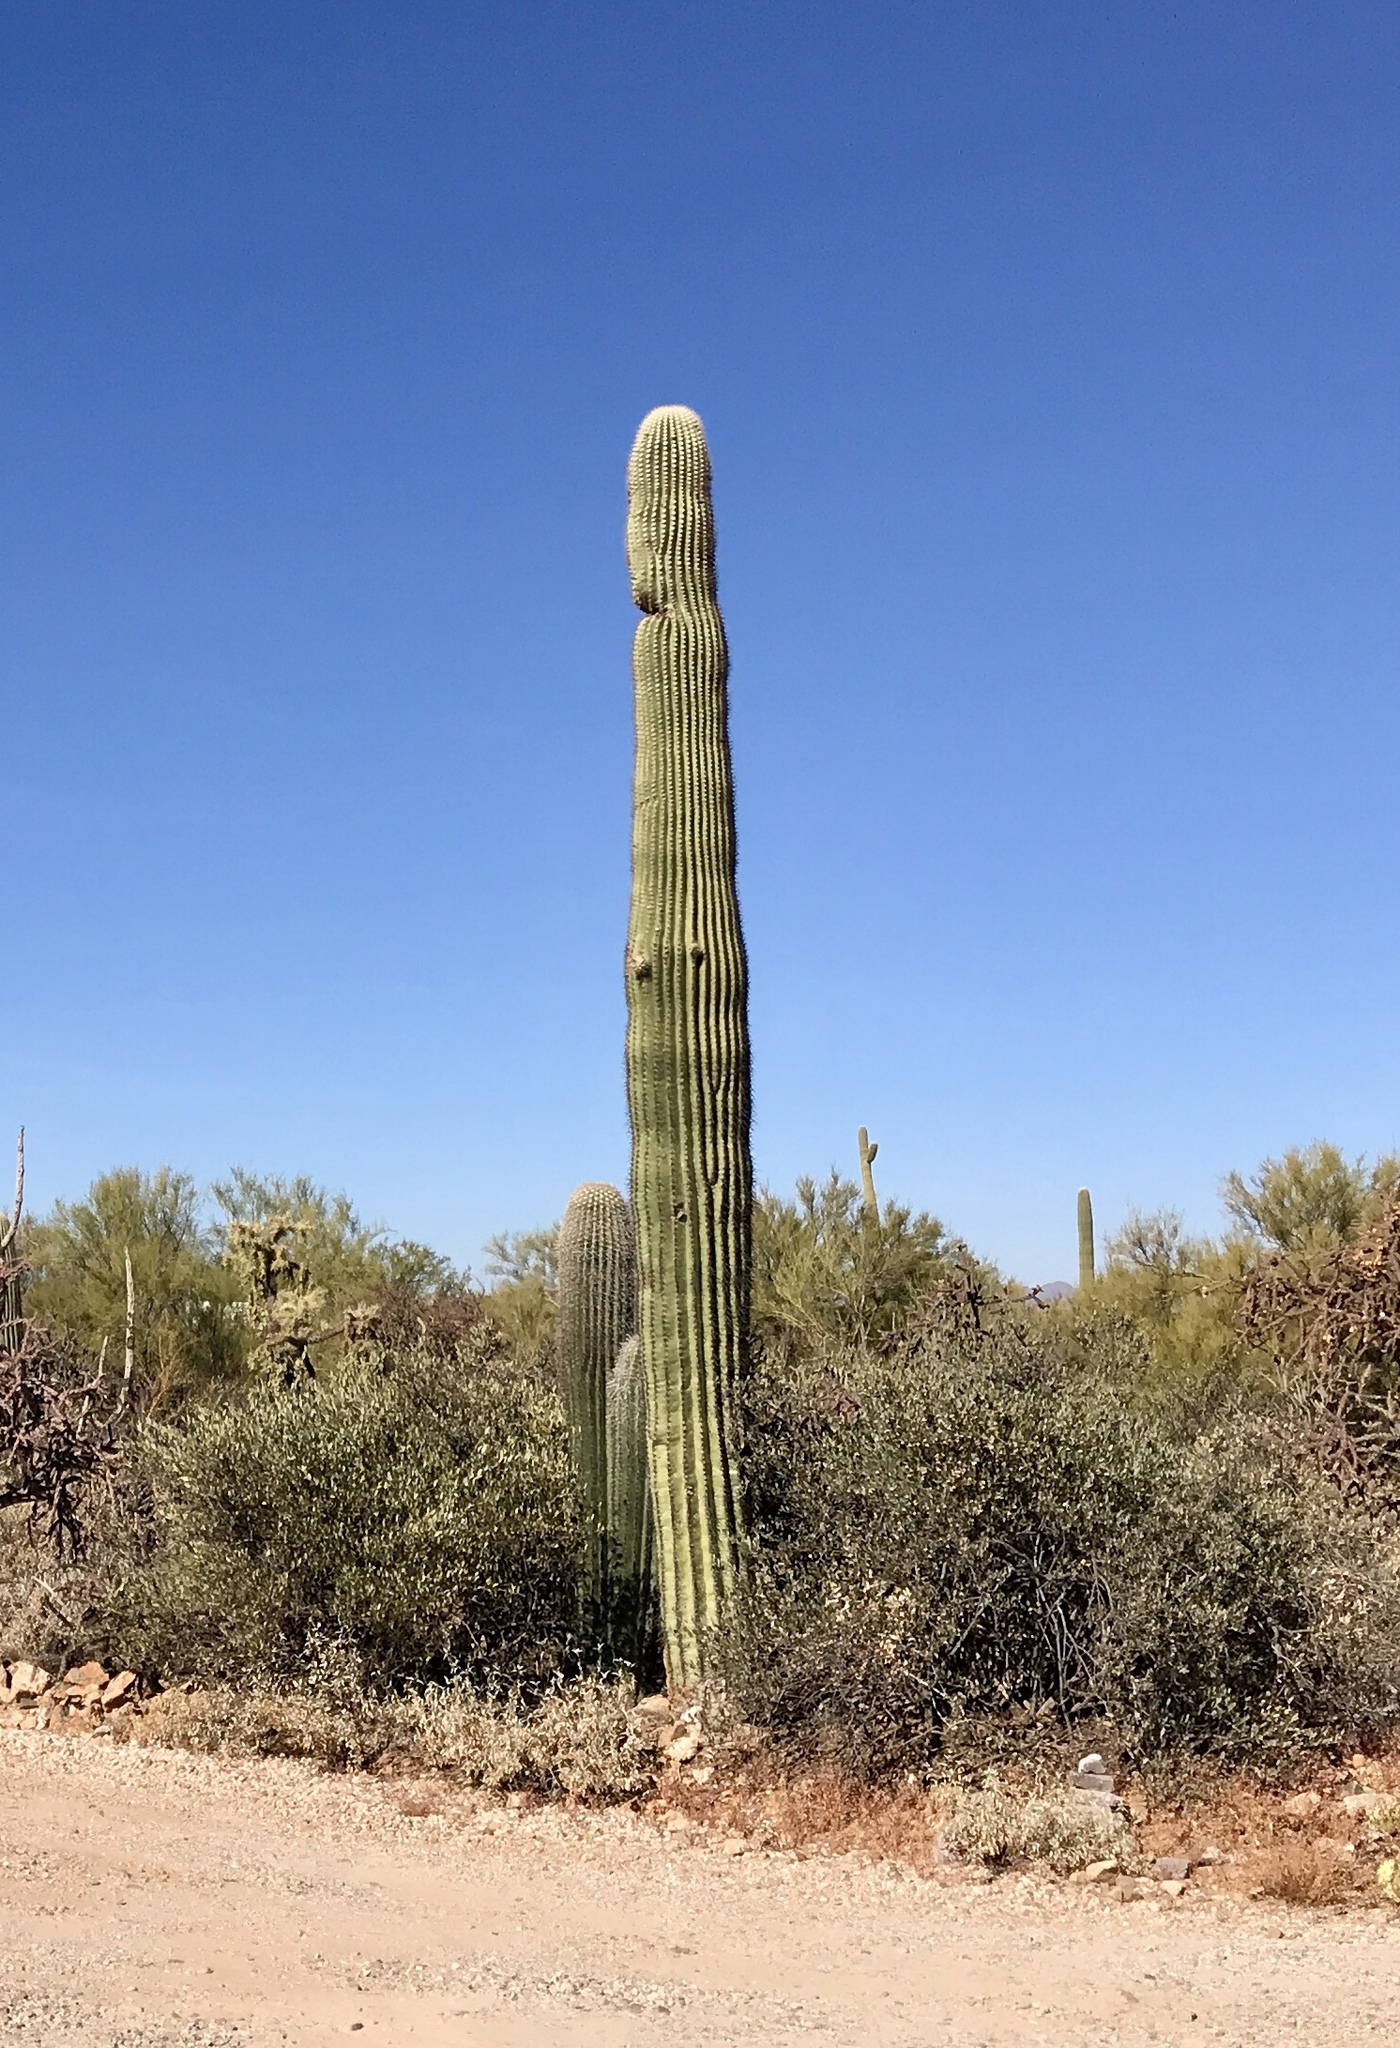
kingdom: Plantae
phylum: Tracheophyta
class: Magnoliopsida
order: Caryophyllales
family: Cactaceae
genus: Carnegiea
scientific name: Carnegiea gigantea
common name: Saguaro
